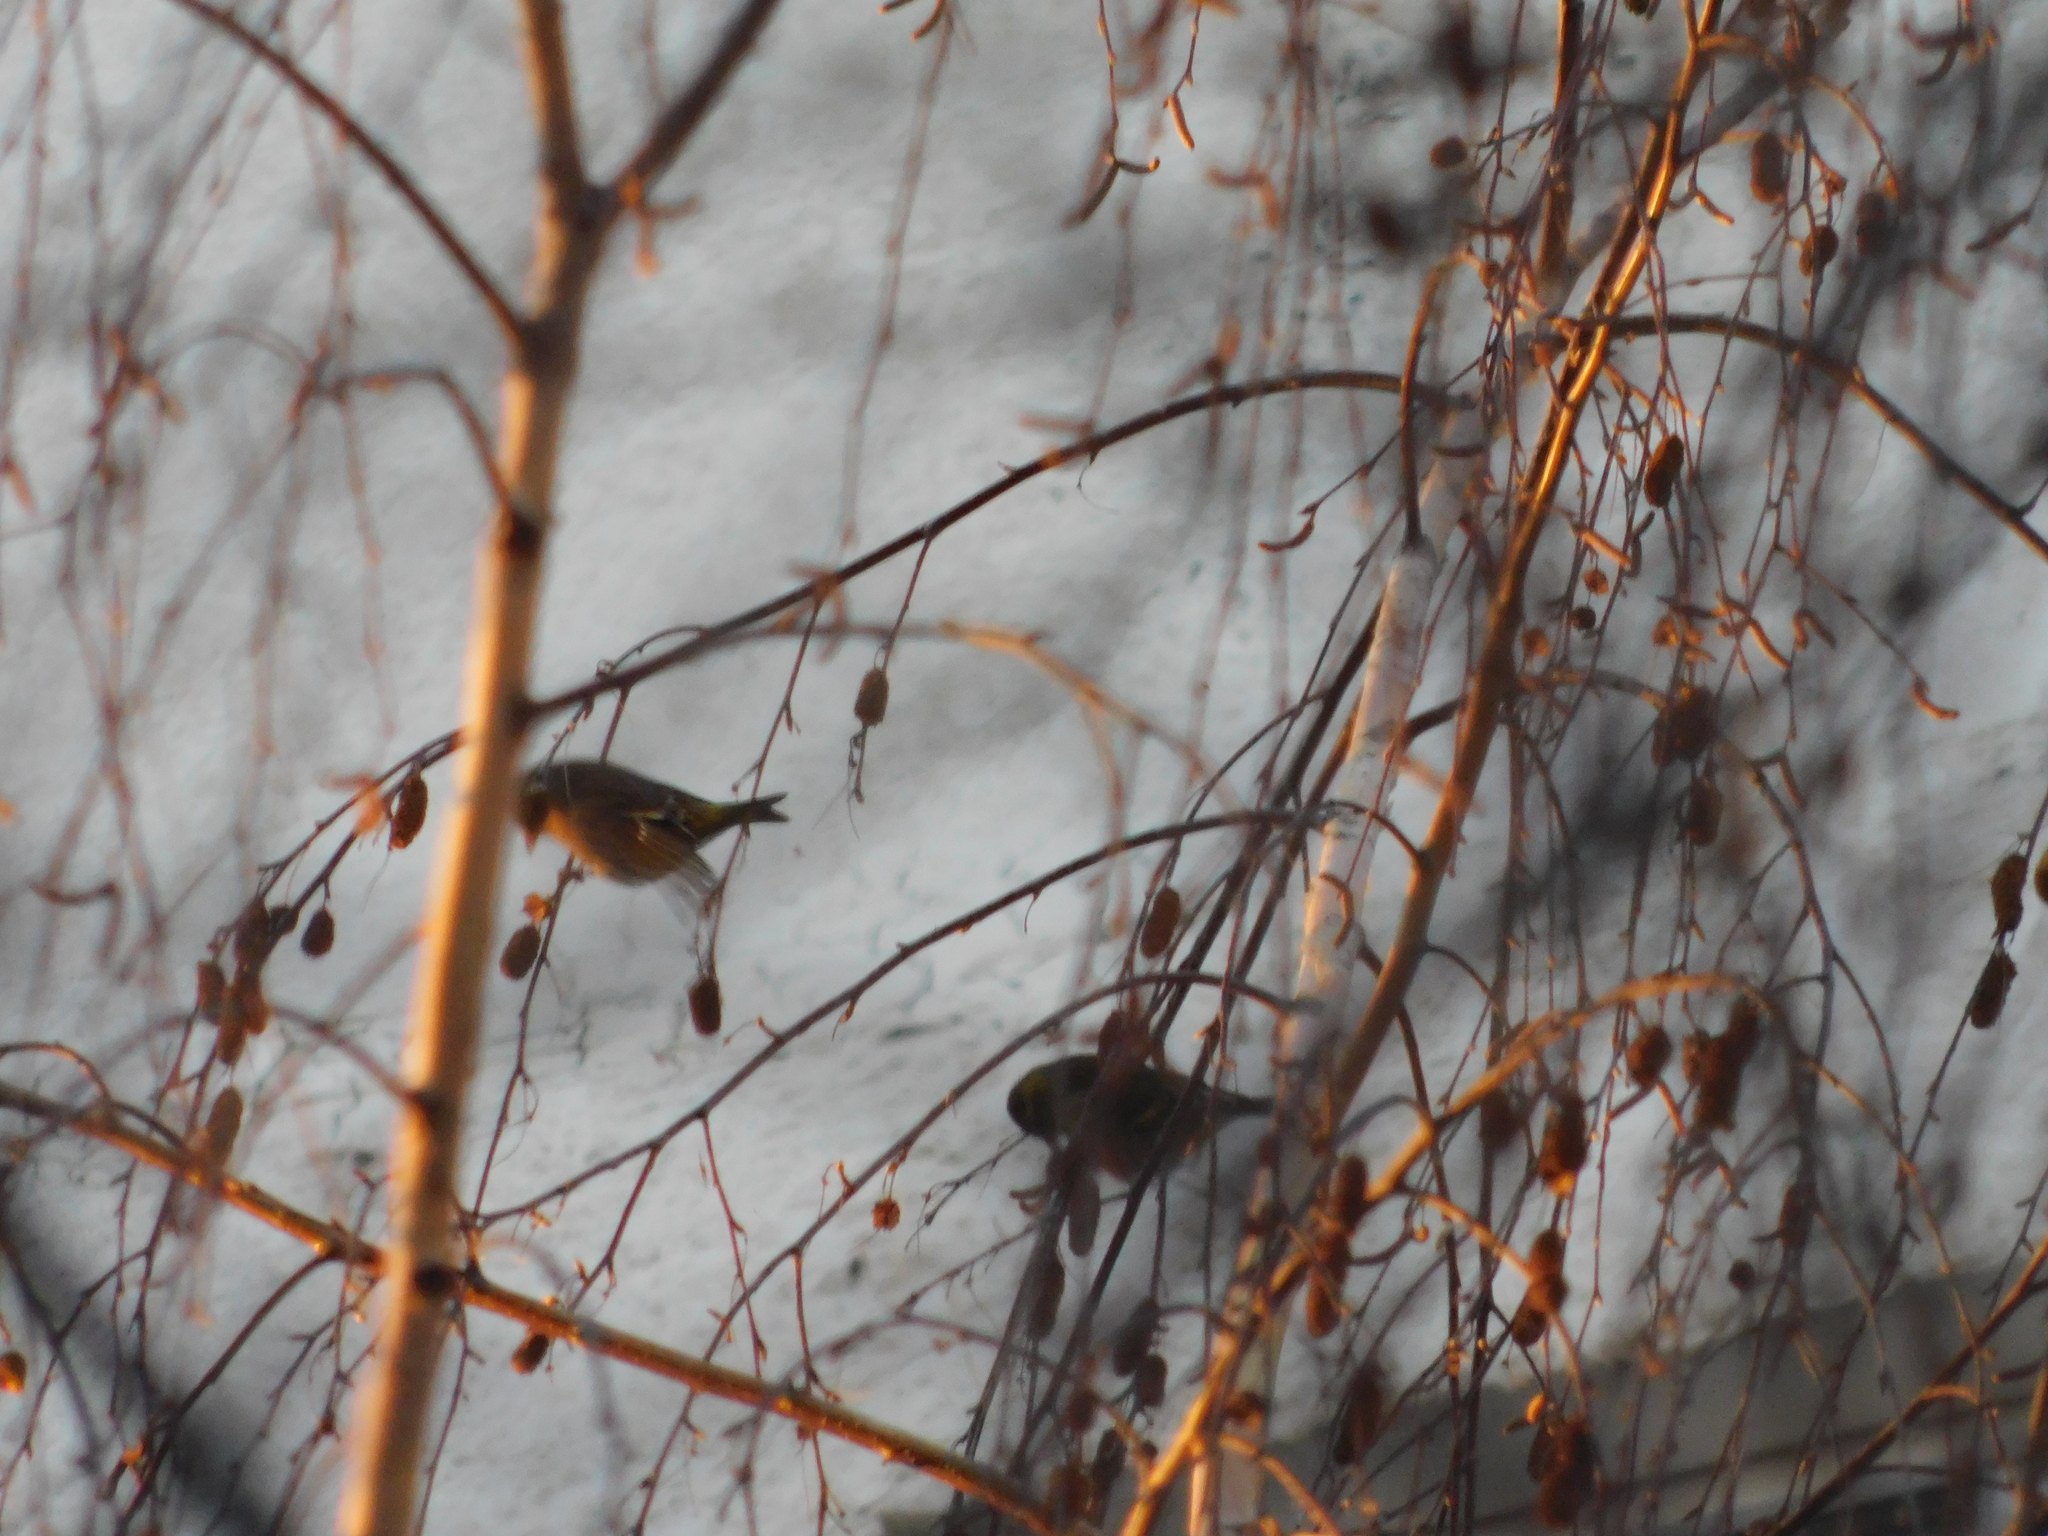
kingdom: Animalia
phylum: Chordata
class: Aves
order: Passeriformes
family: Fringillidae
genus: Spinus
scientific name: Spinus spinus
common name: Eurasian siskin
